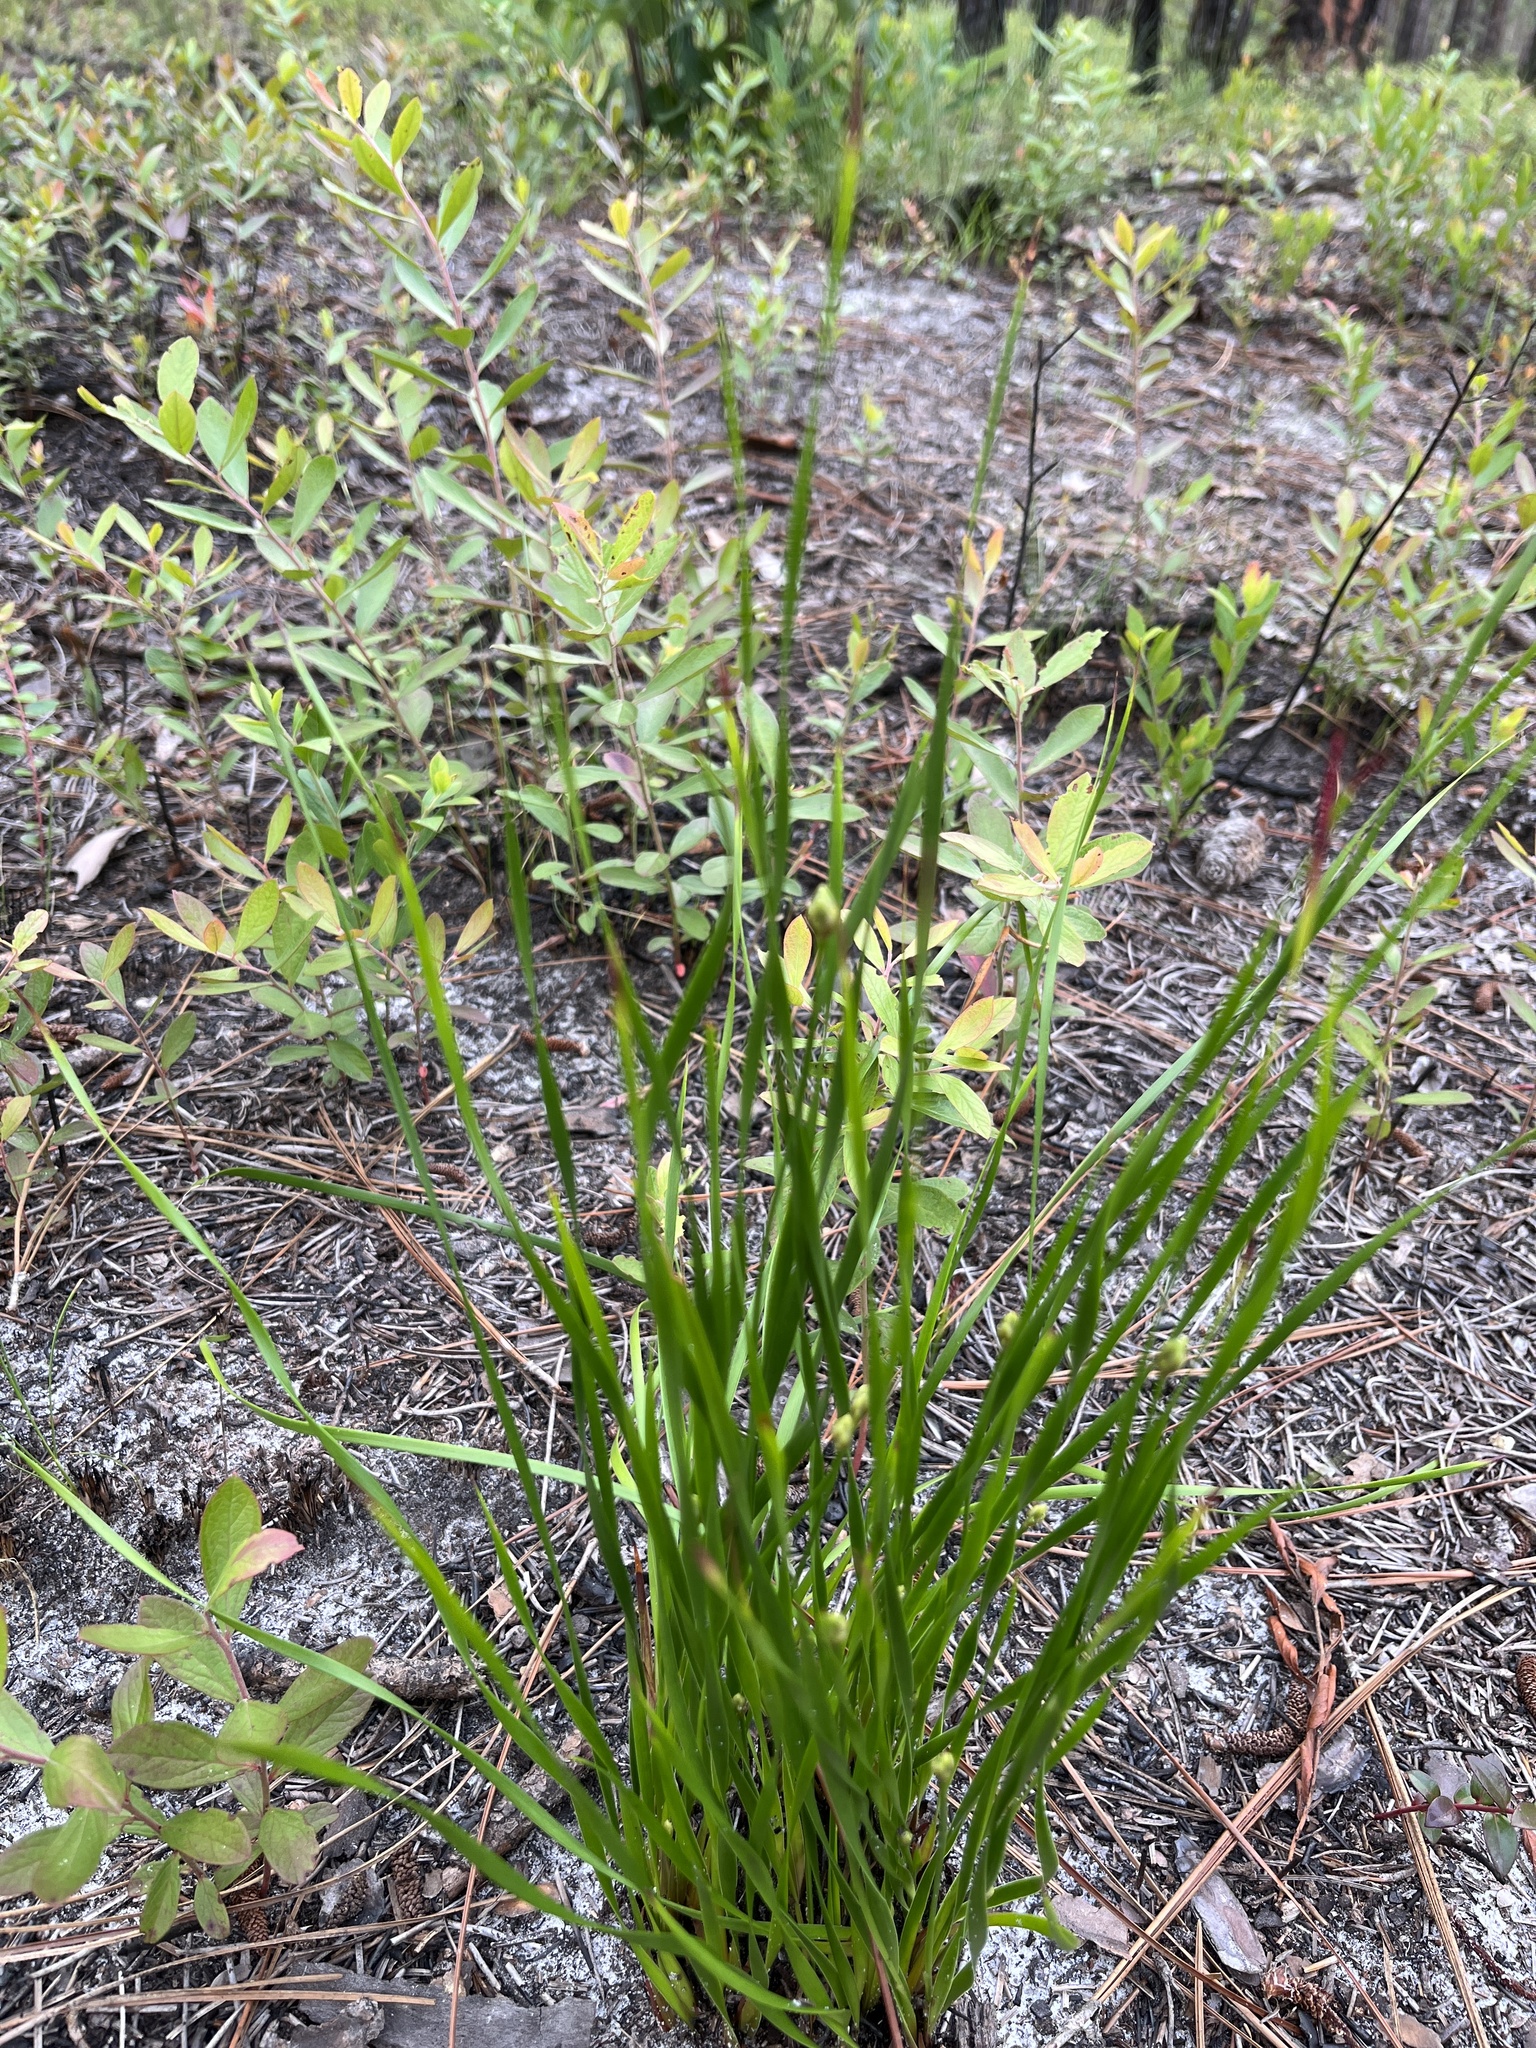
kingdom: Plantae
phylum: Tracheophyta
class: Liliopsida
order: Poales
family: Xyridaceae
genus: Xyris
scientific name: Xyris caroliniana
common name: Carolina yellow-eyed-grass
